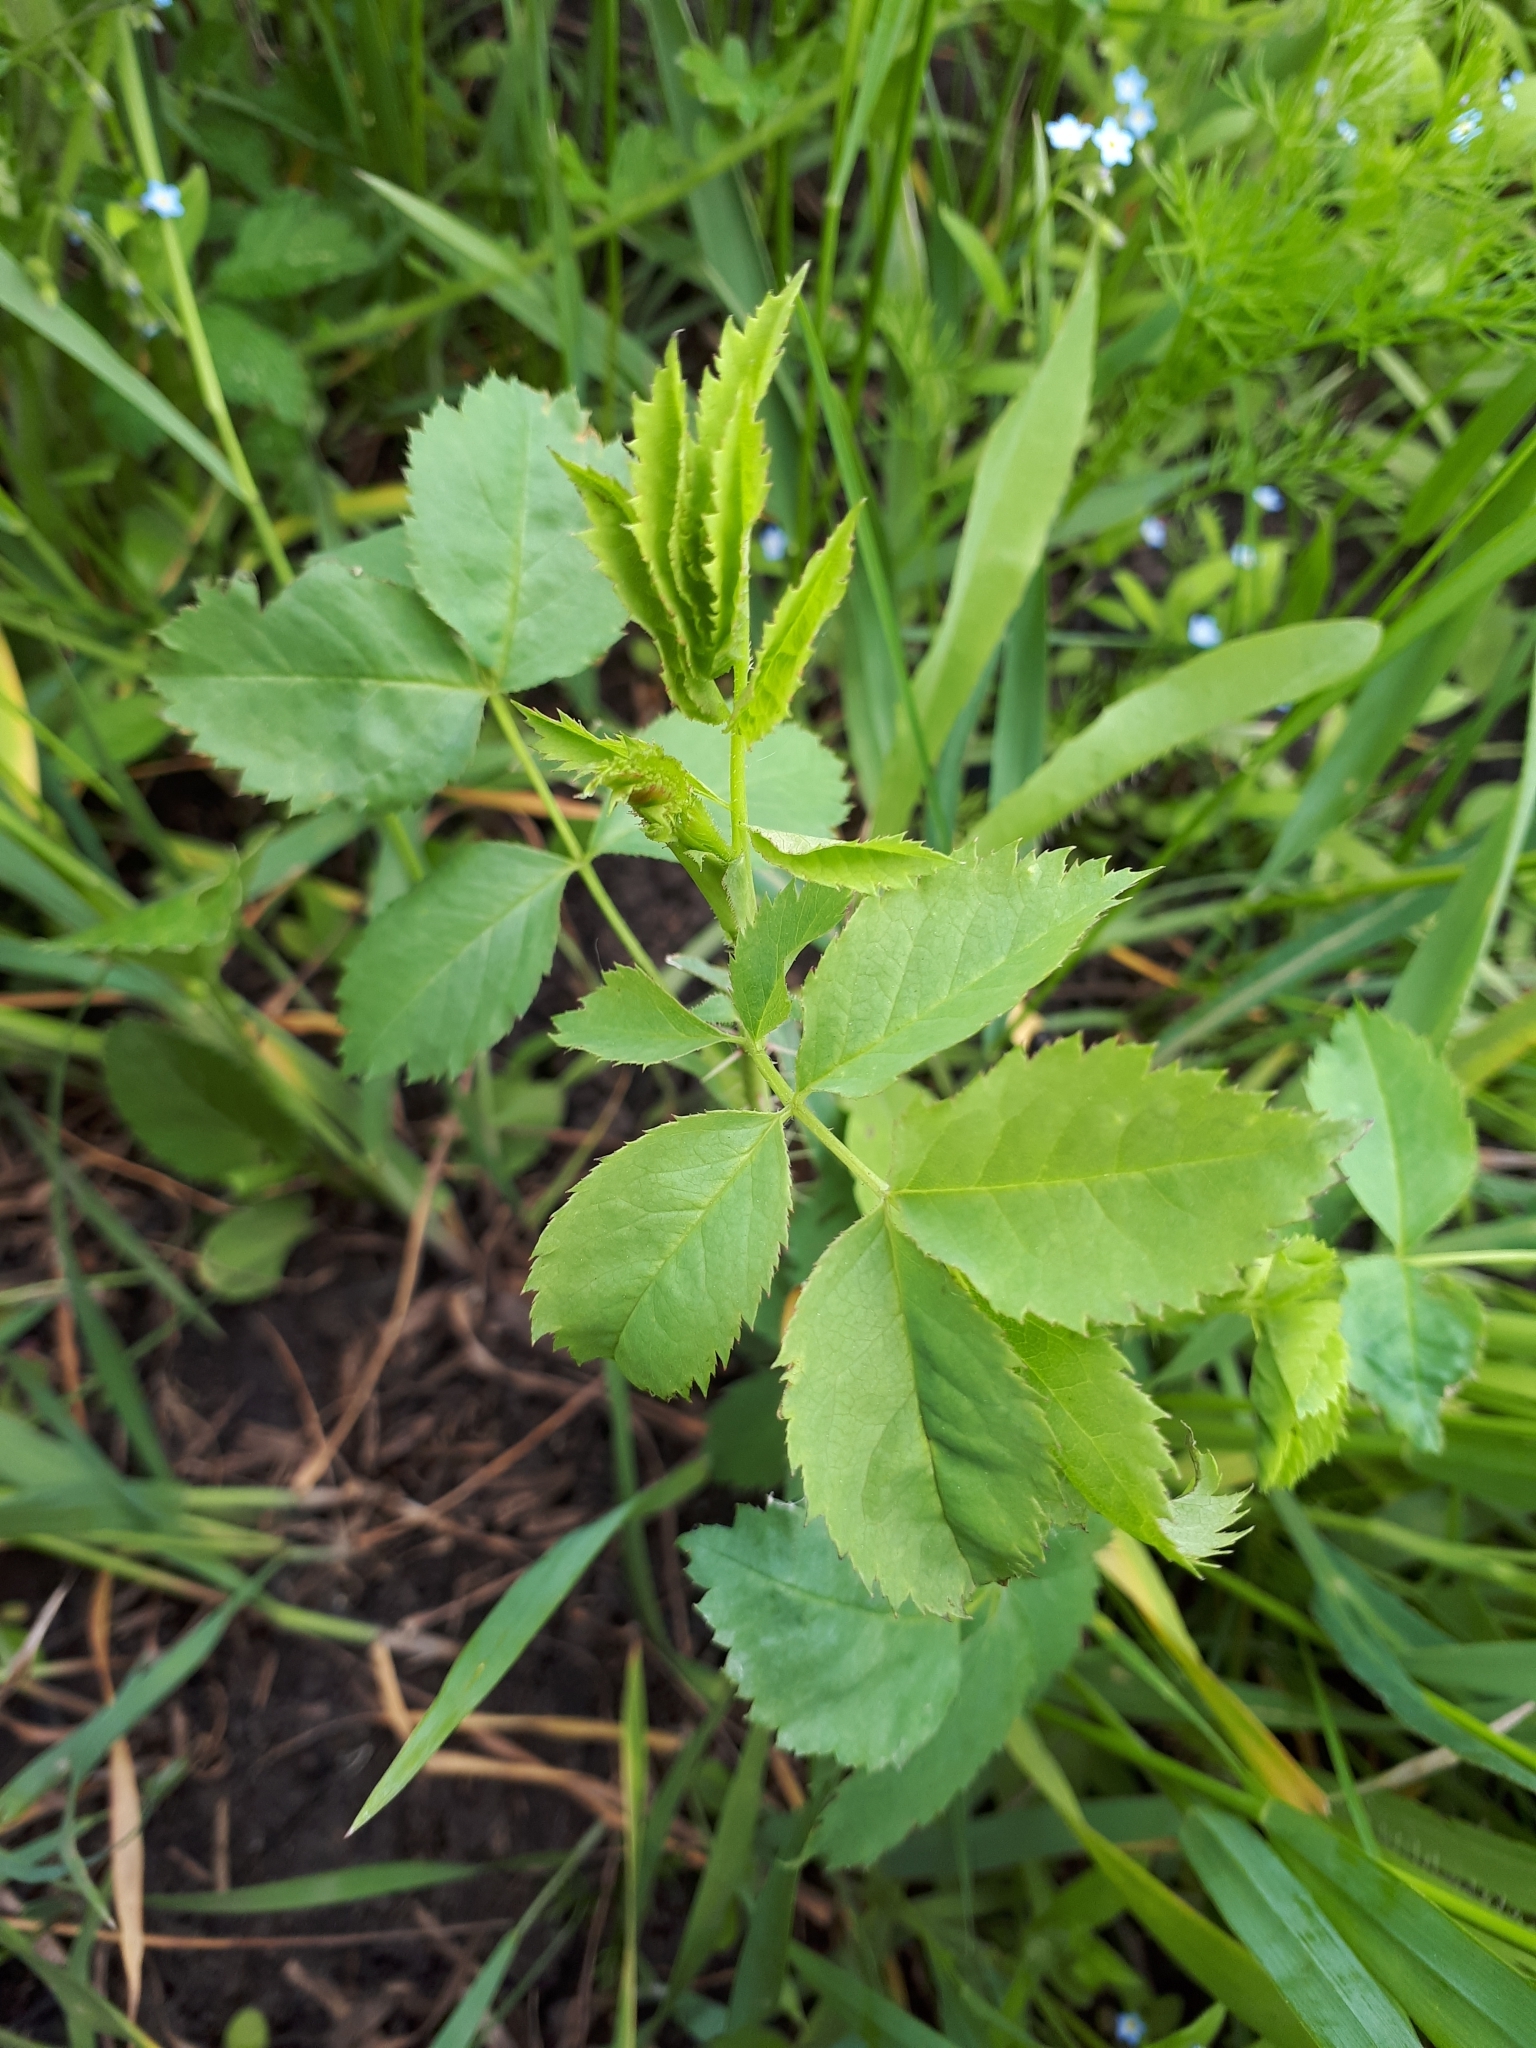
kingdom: Plantae
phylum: Tracheophyta
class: Magnoliopsida
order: Rosales
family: Rosaceae
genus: Rosa
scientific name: Rosa
